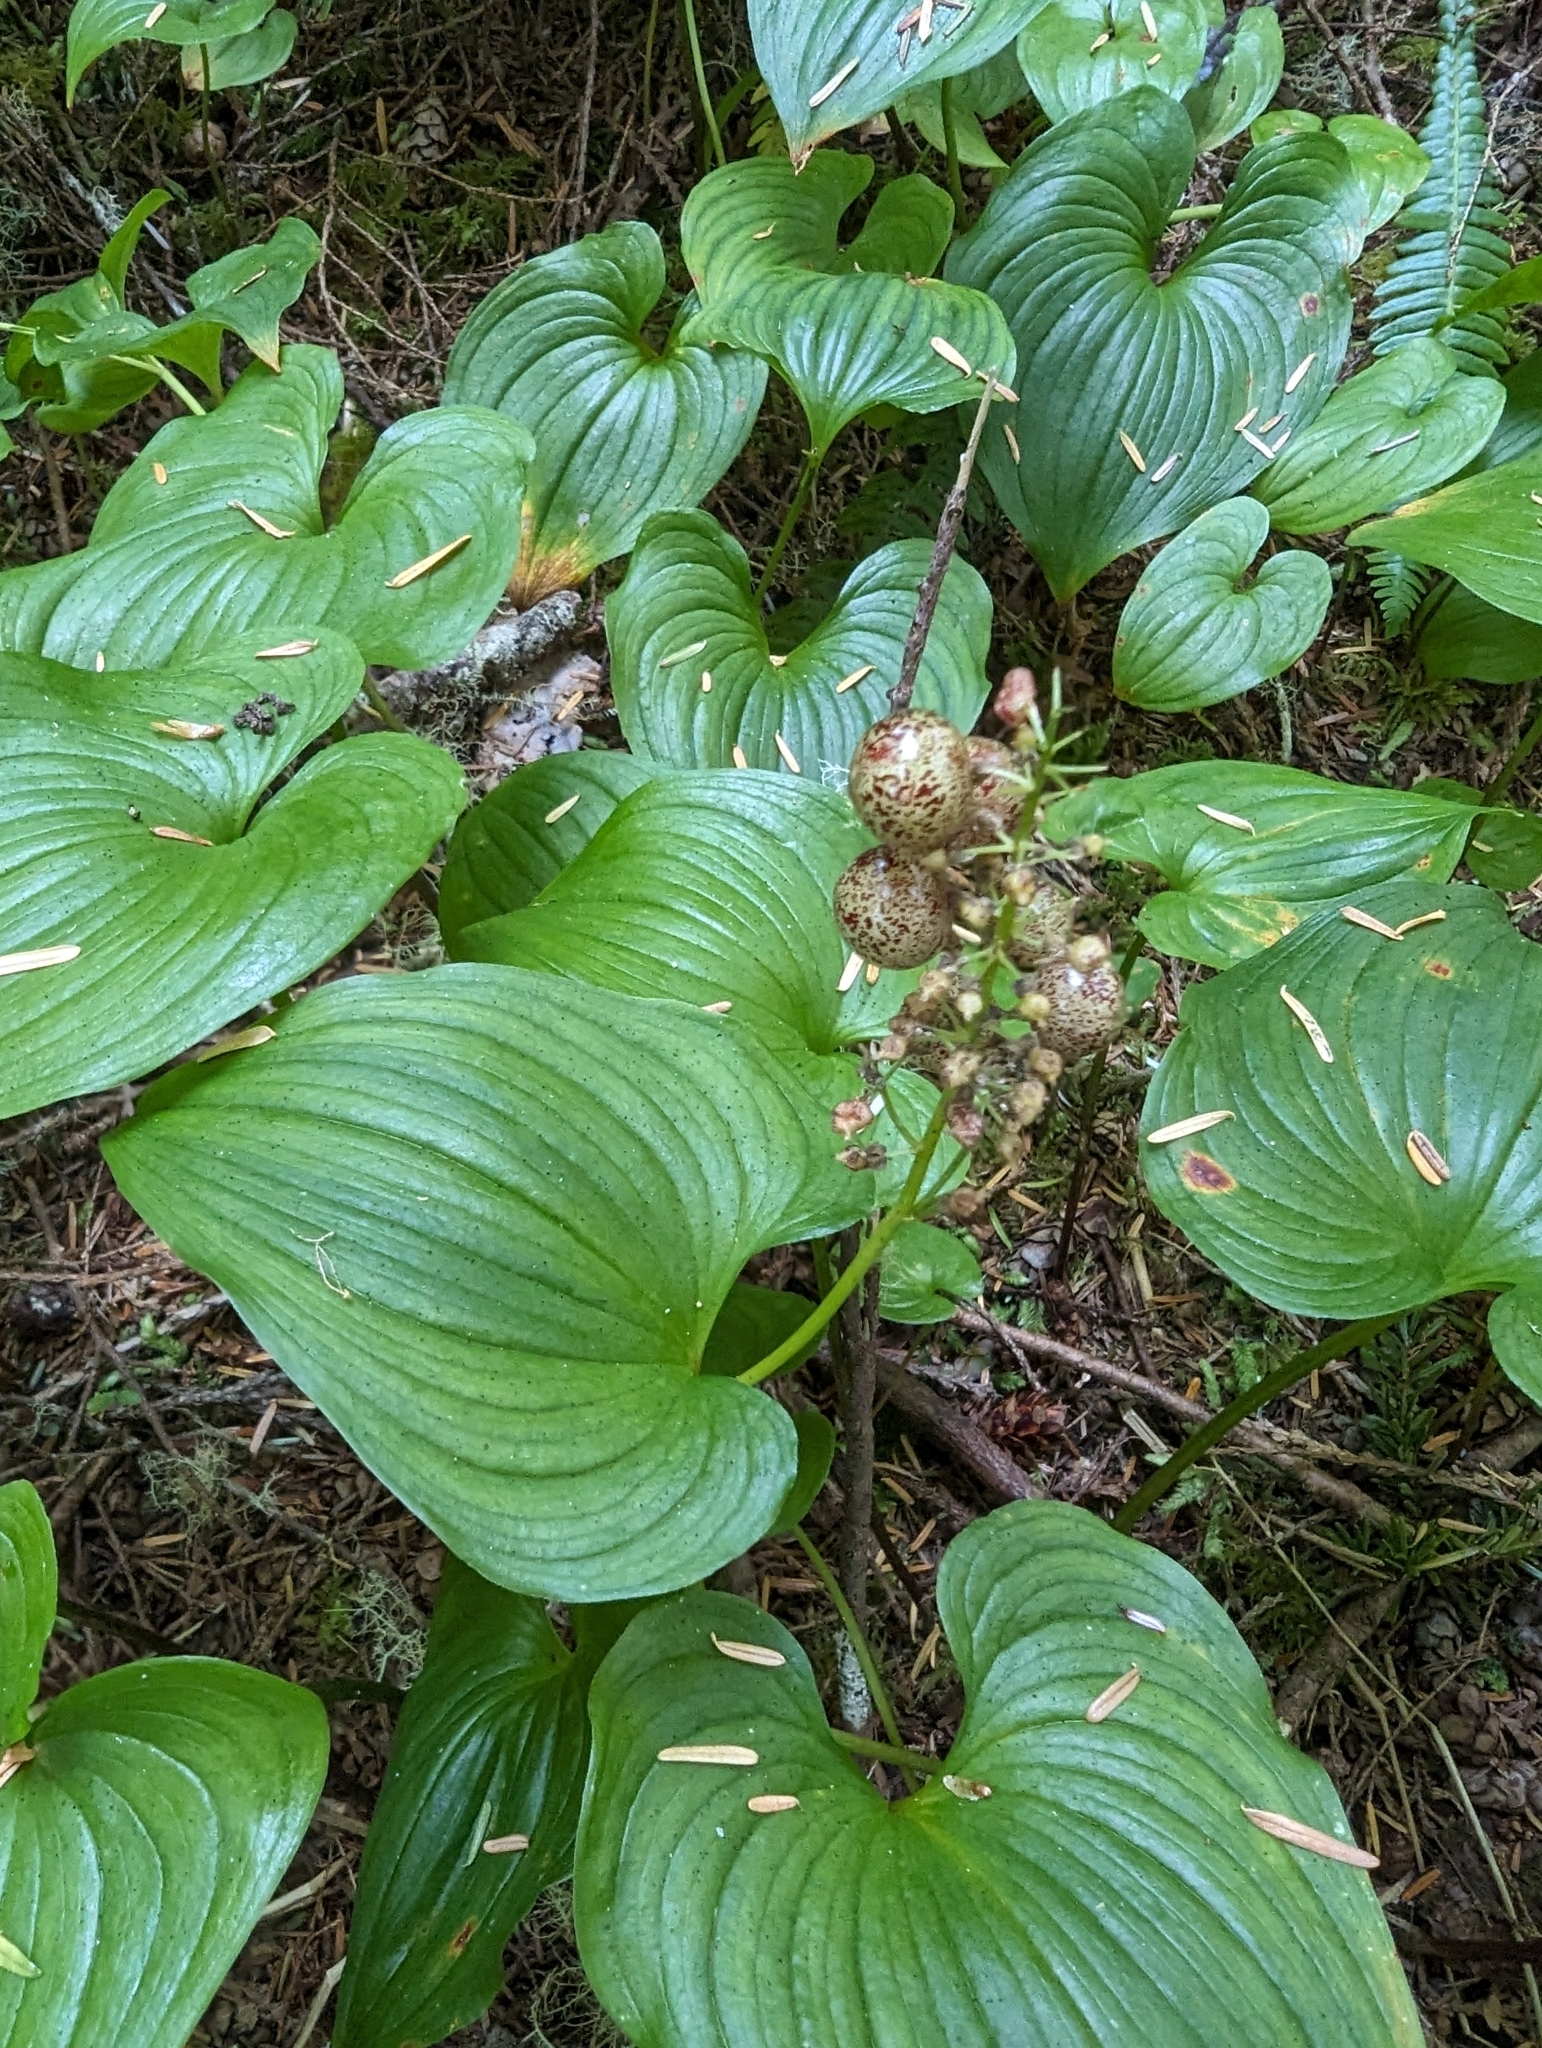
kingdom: Plantae
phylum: Tracheophyta
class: Liliopsida
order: Asparagales
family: Asparagaceae
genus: Maianthemum
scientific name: Maianthemum dilatatum
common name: False lily-of-the-valley
